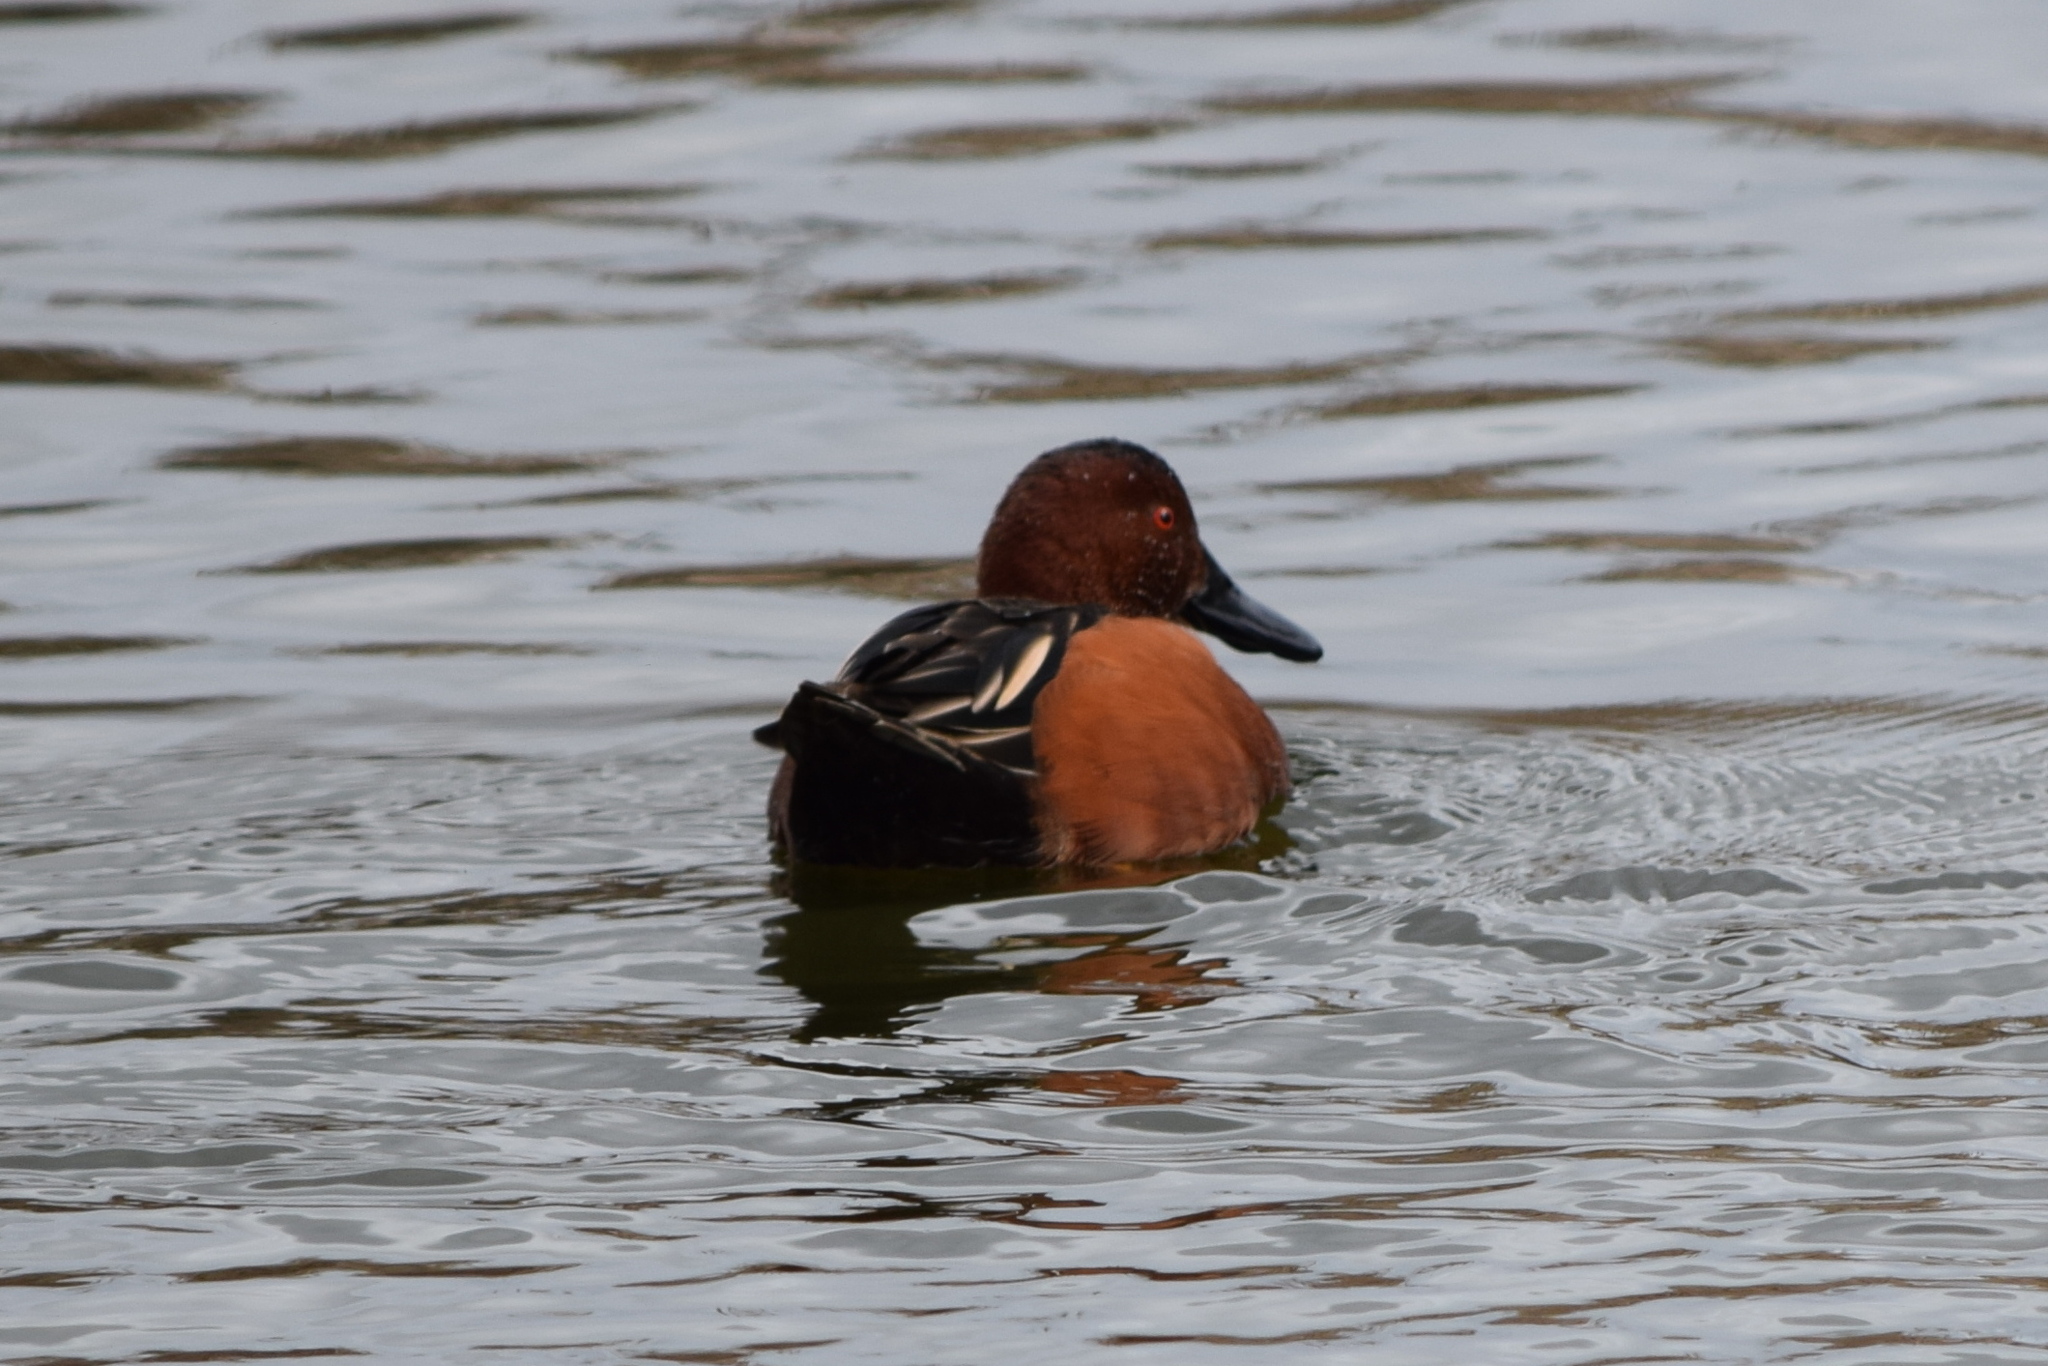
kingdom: Animalia
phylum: Chordata
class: Aves
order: Anseriformes
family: Anatidae
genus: Spatula
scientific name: Spatula cyanoptera
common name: Cinnamon teal
